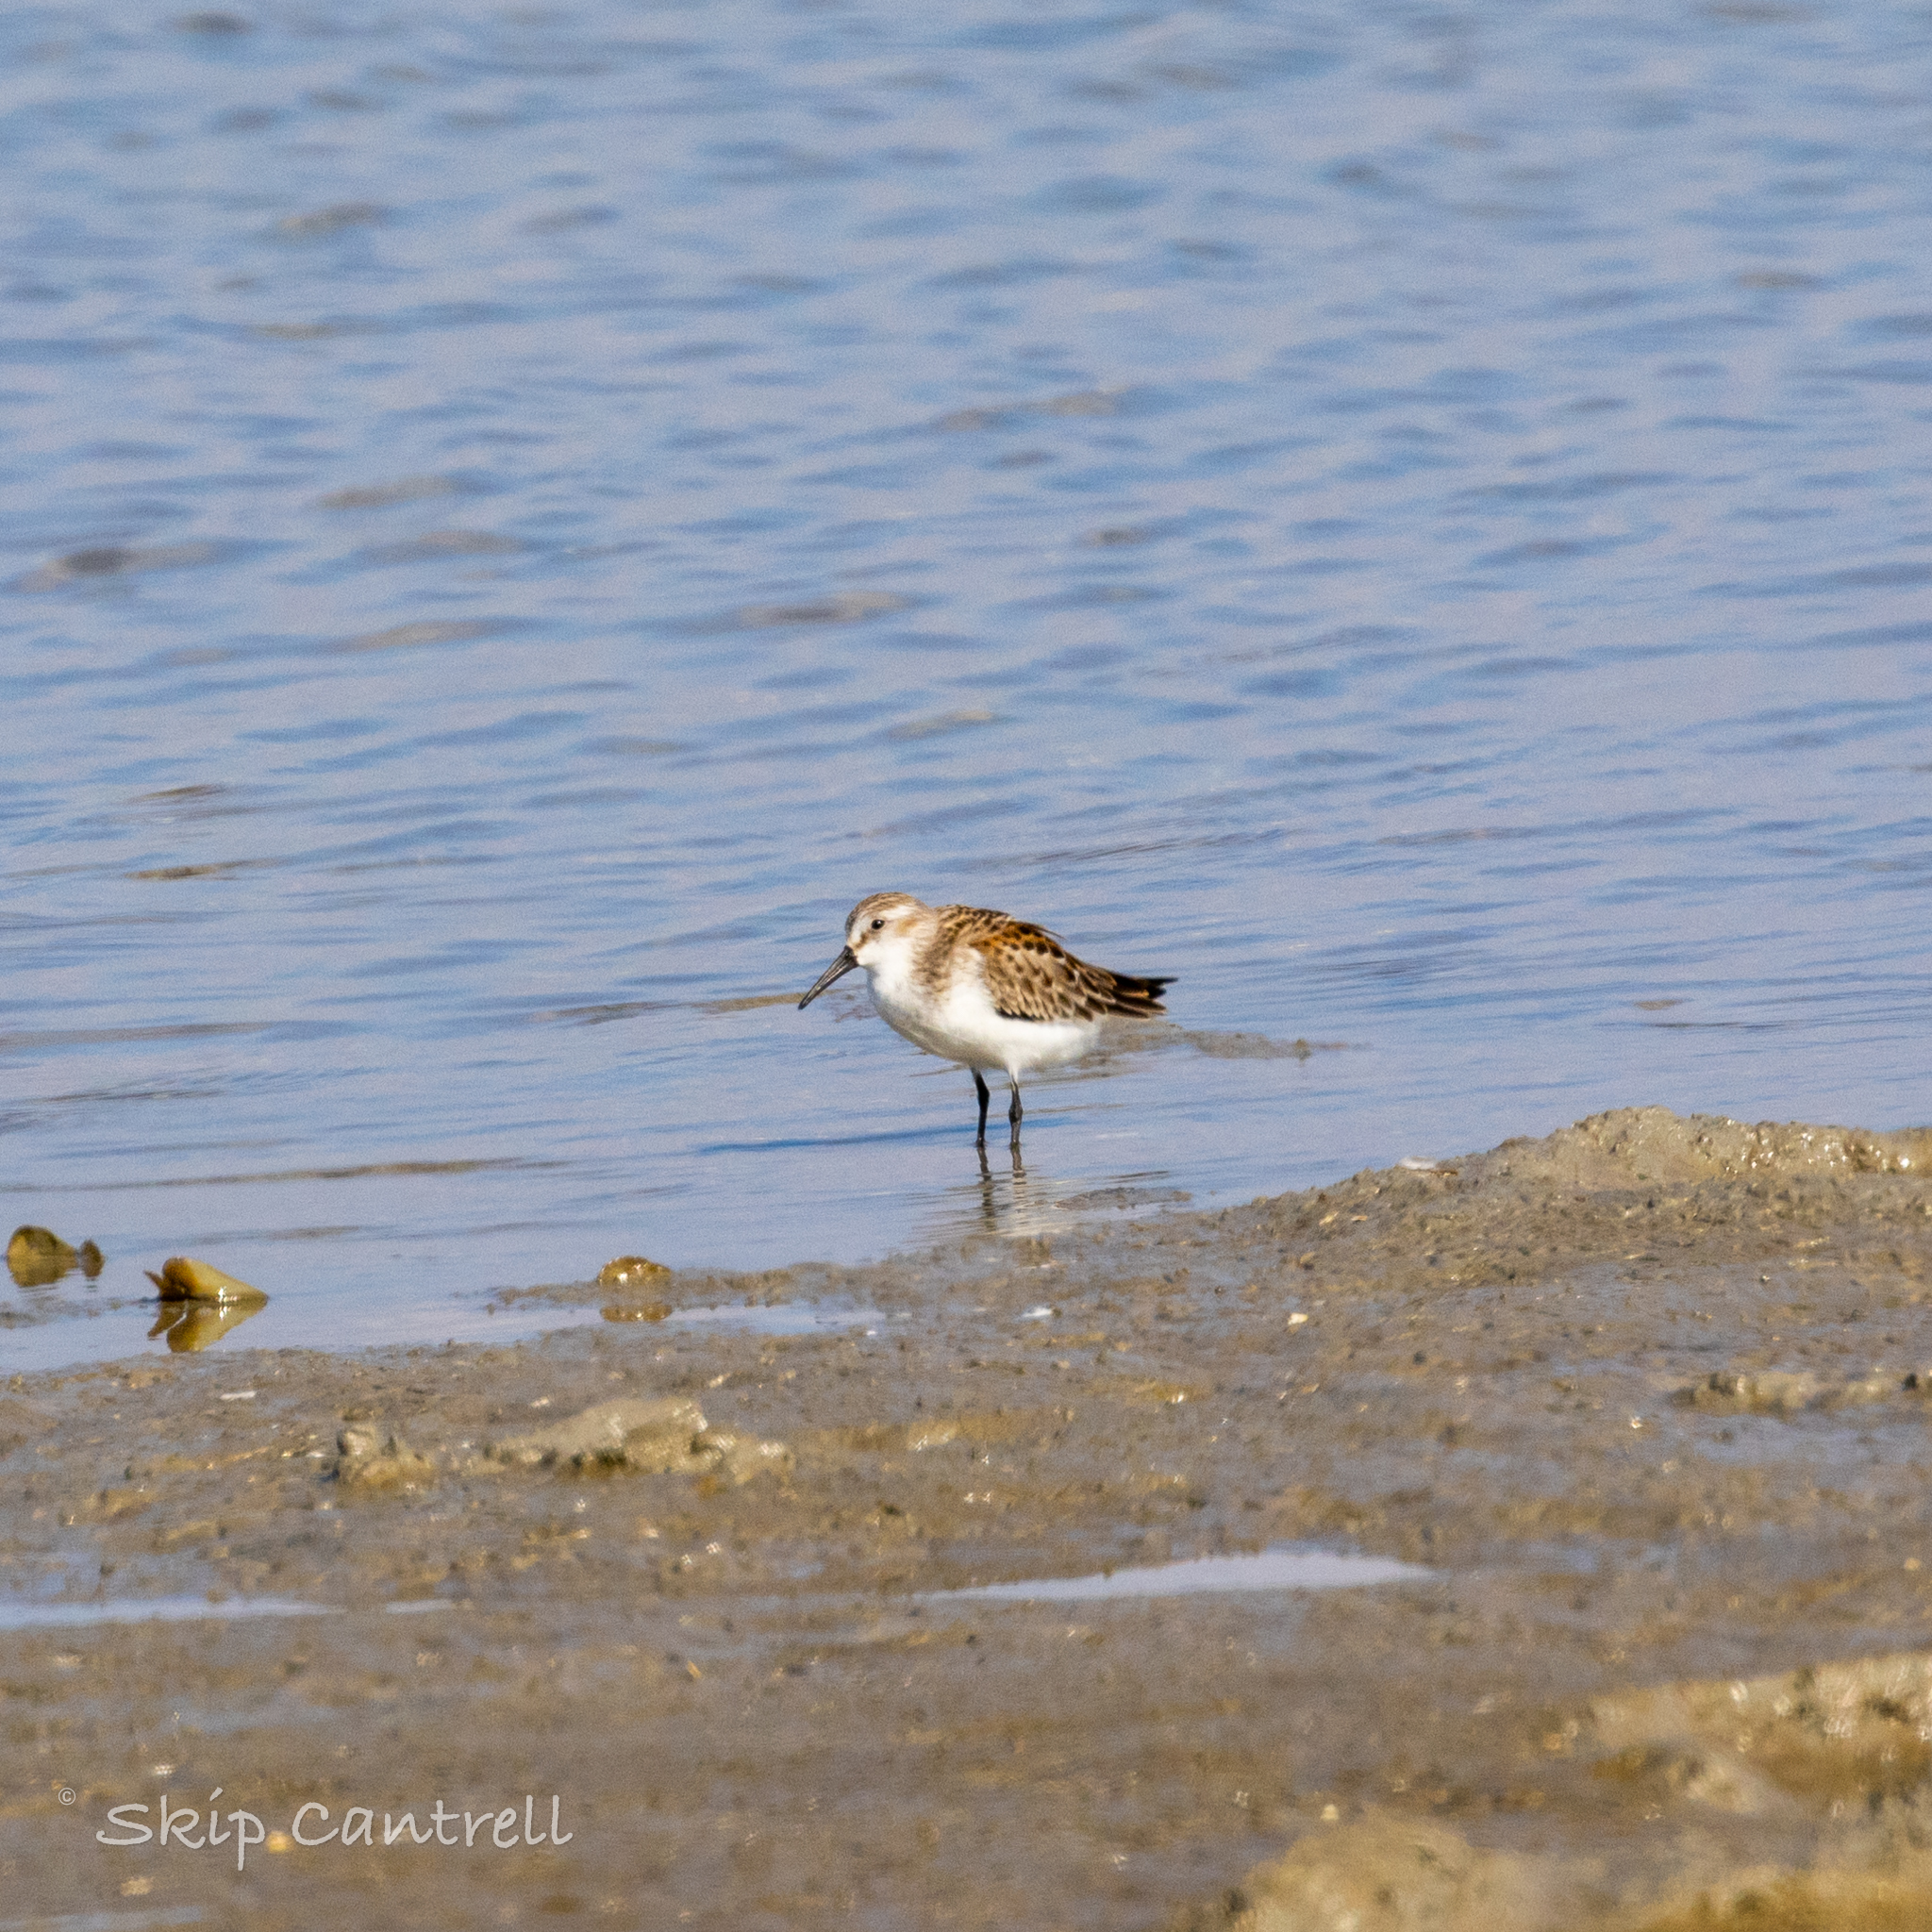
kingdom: Animalia
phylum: Chordata
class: Aves
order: Charadriiformes
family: Scolopacidae
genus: Calidris
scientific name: Calidris mauri
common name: Western sandpiper
